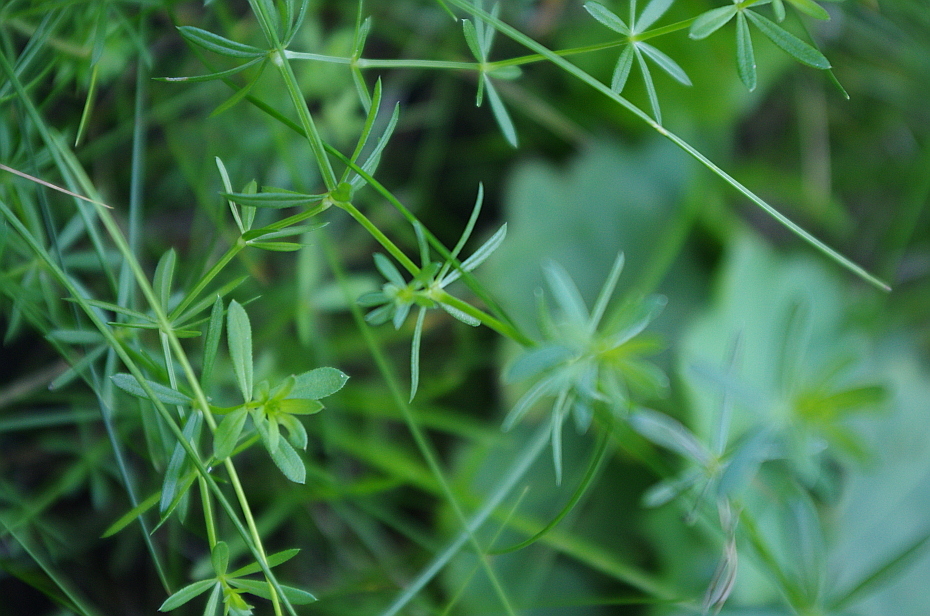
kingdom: Plantae
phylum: Tracheophyta
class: Magnoliopsida
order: Gentianales
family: Rubiaceae
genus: Galium
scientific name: Galium mollugo
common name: Hedge bedstraw
